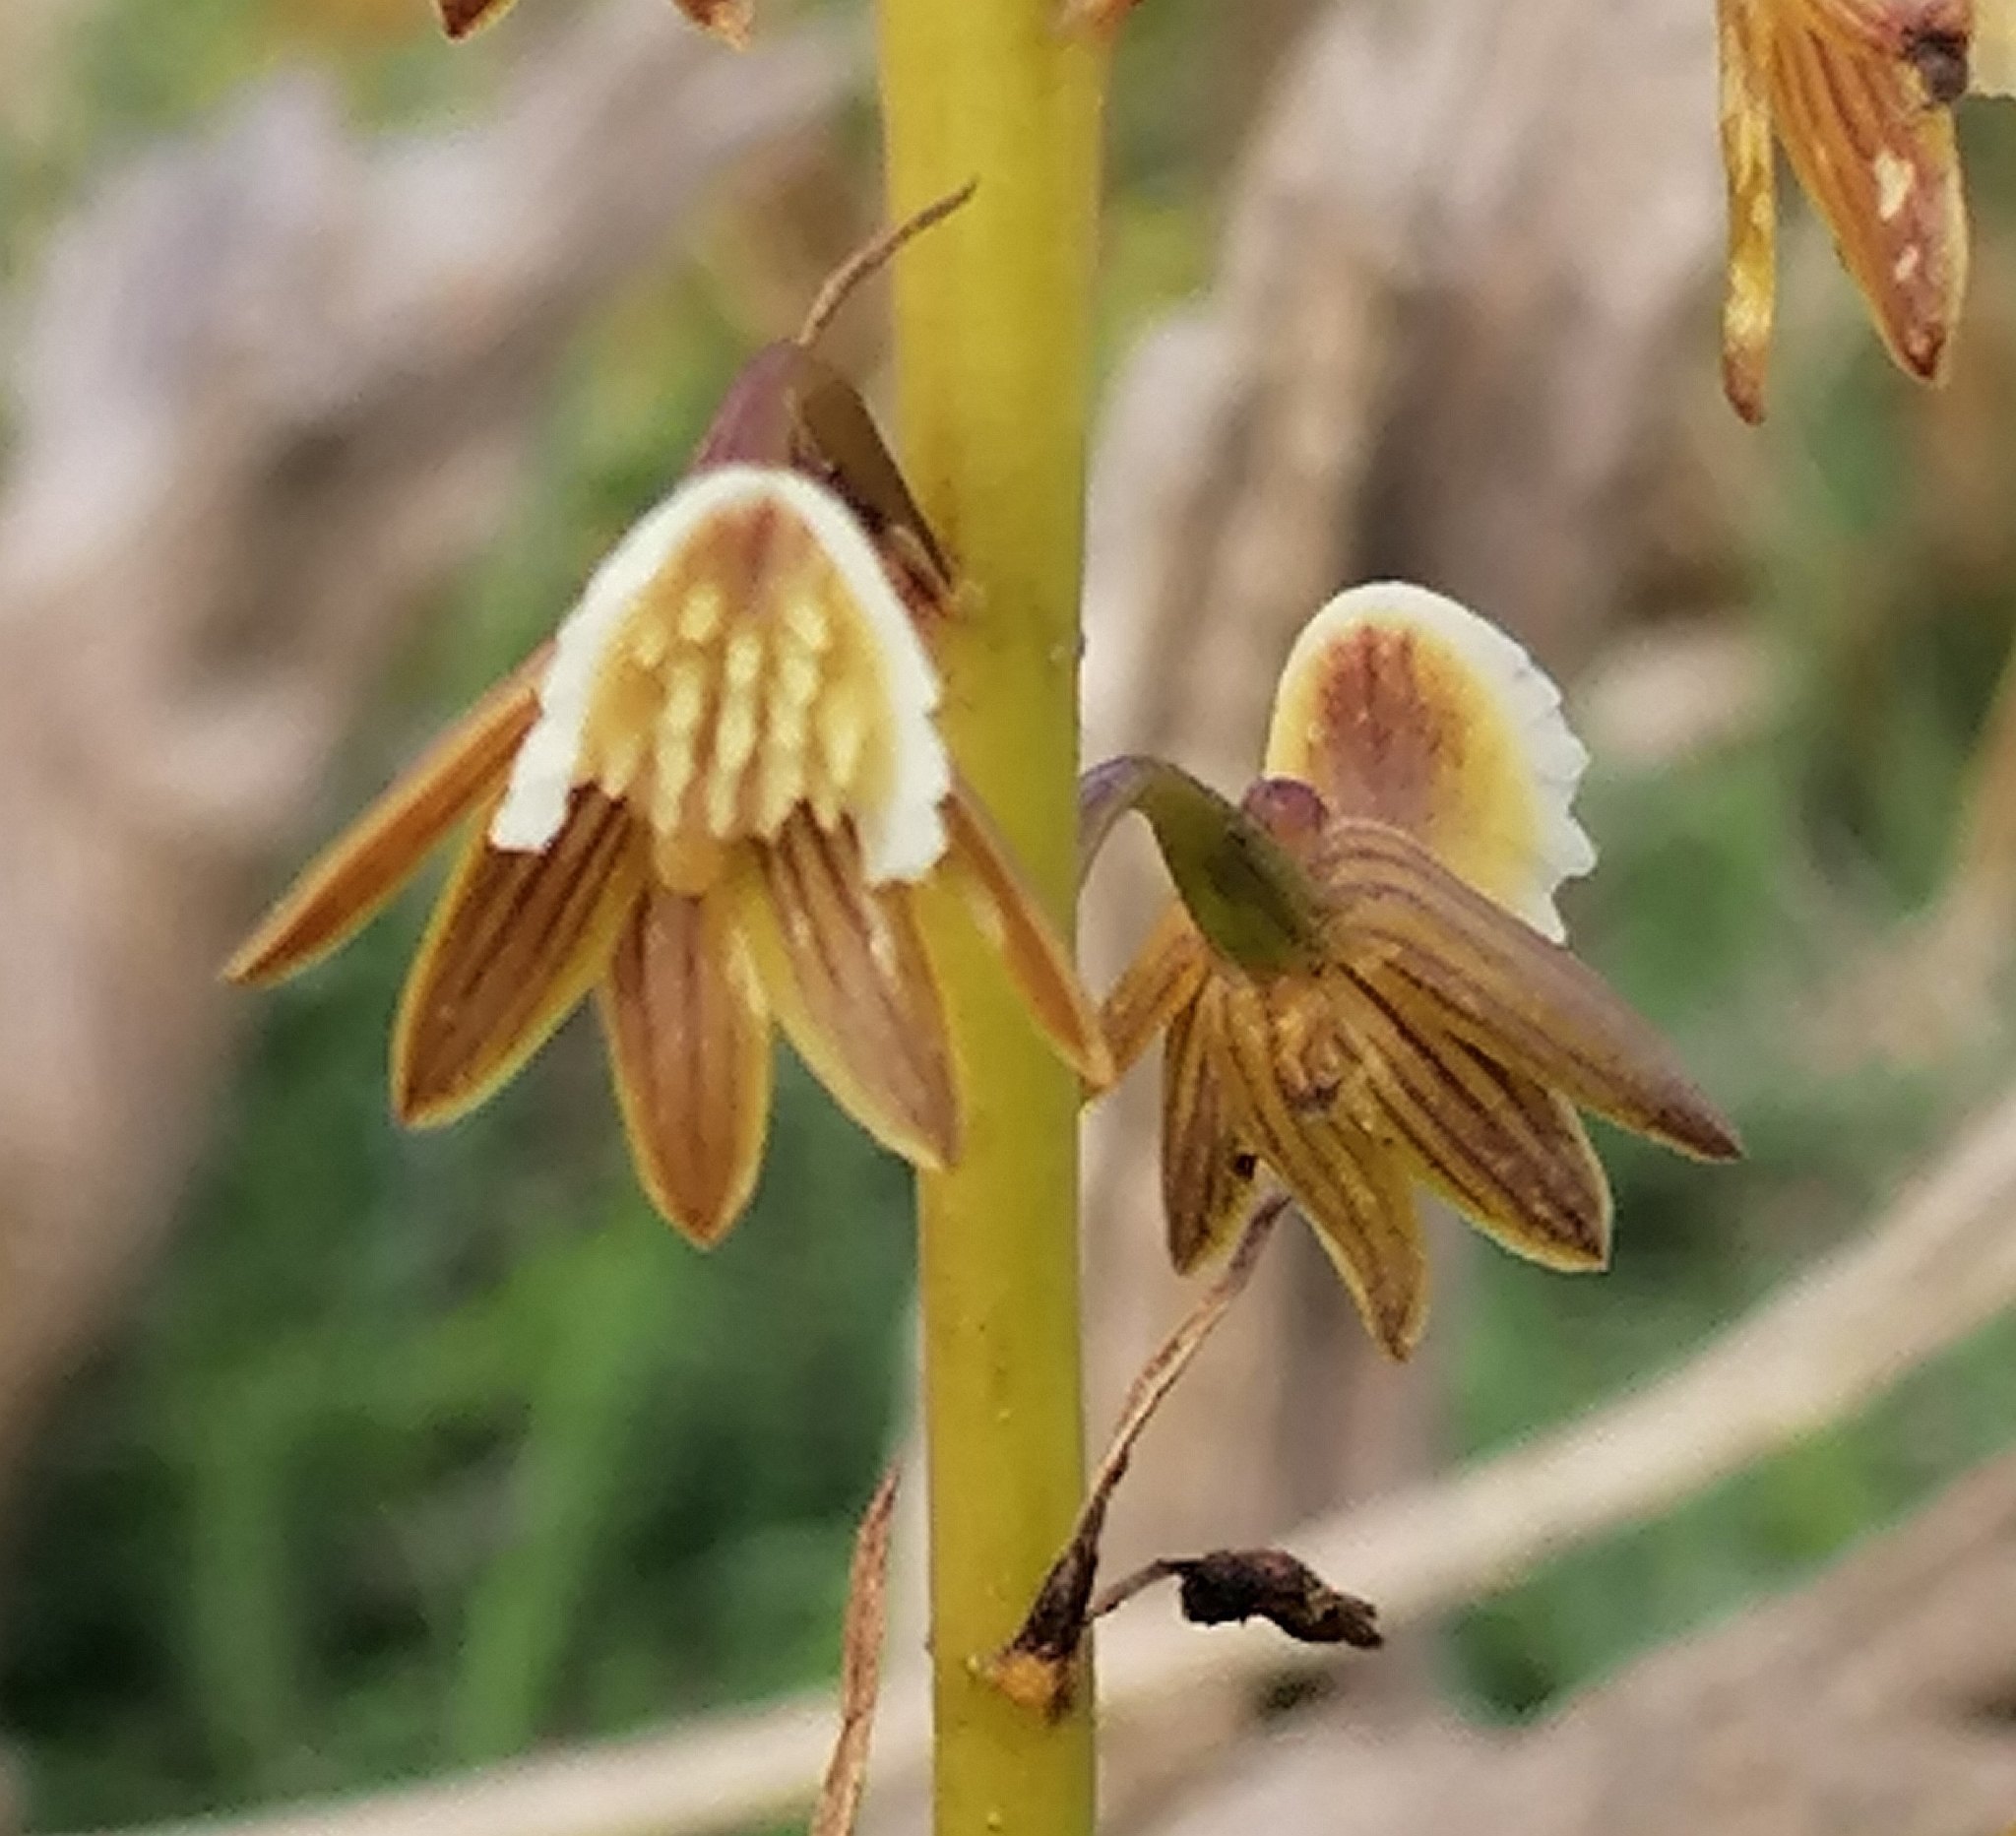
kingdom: Plantae
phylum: Tracheophyta
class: Liliopsida
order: Asparagales
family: Orchidaceae
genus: Eulophia
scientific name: Eulophia bolusii
